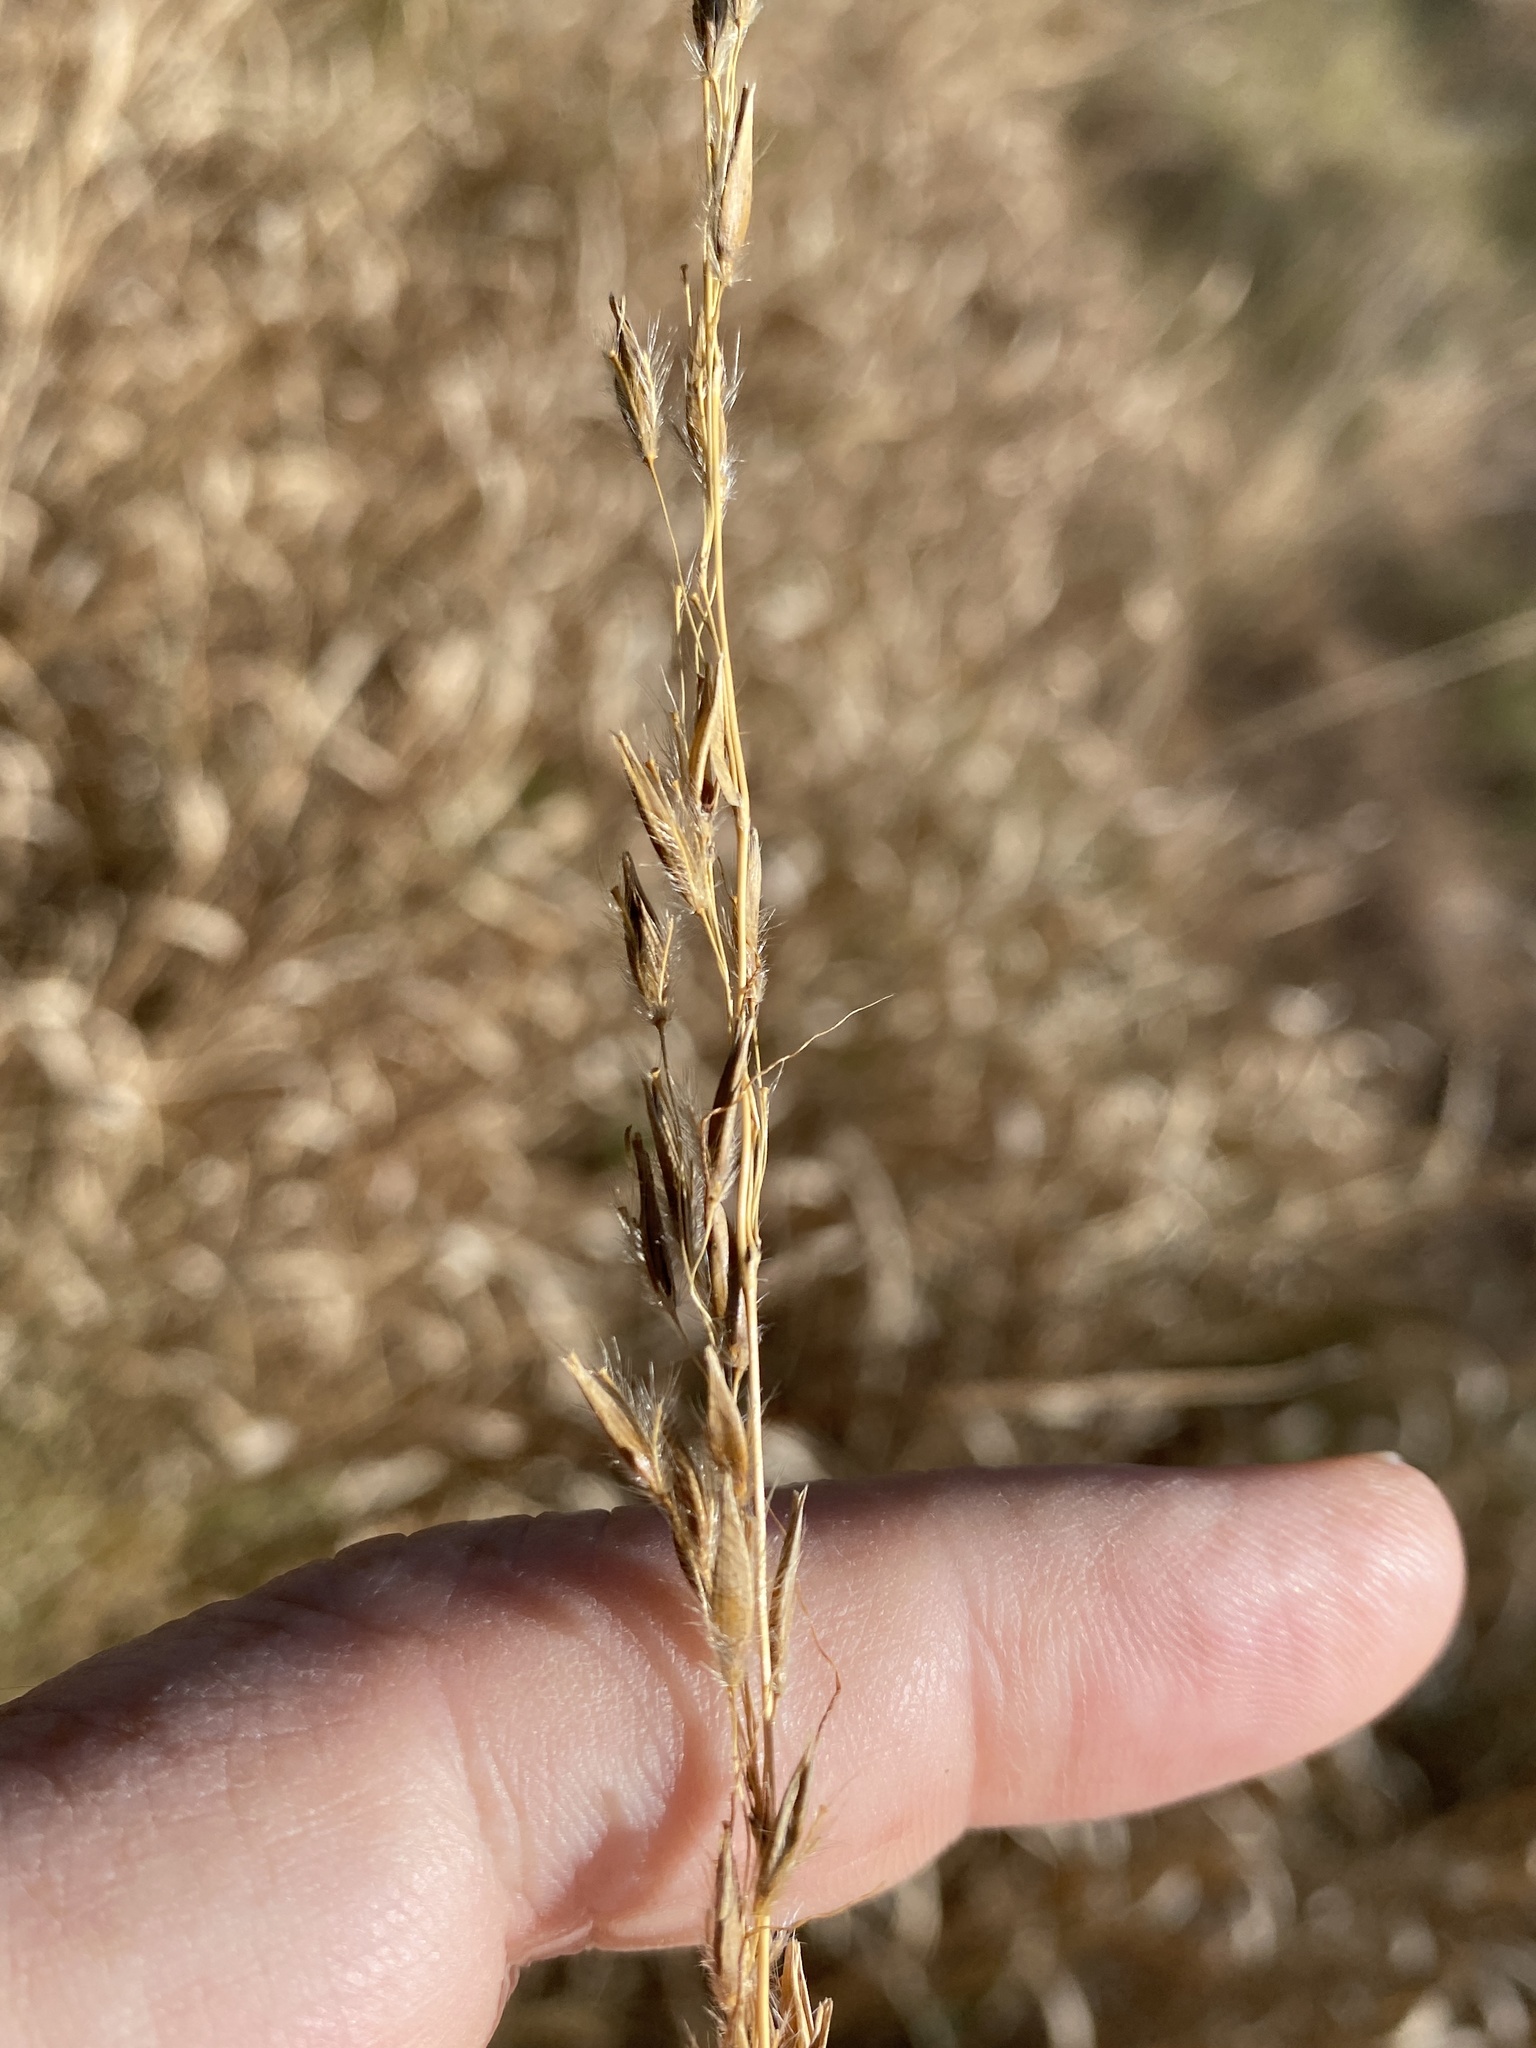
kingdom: Plantae
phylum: Tracheophyta
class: Liliopsida
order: Poales
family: Poaceae
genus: Sorghastrum
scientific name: Sorghastrum nutans
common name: Indian grass
